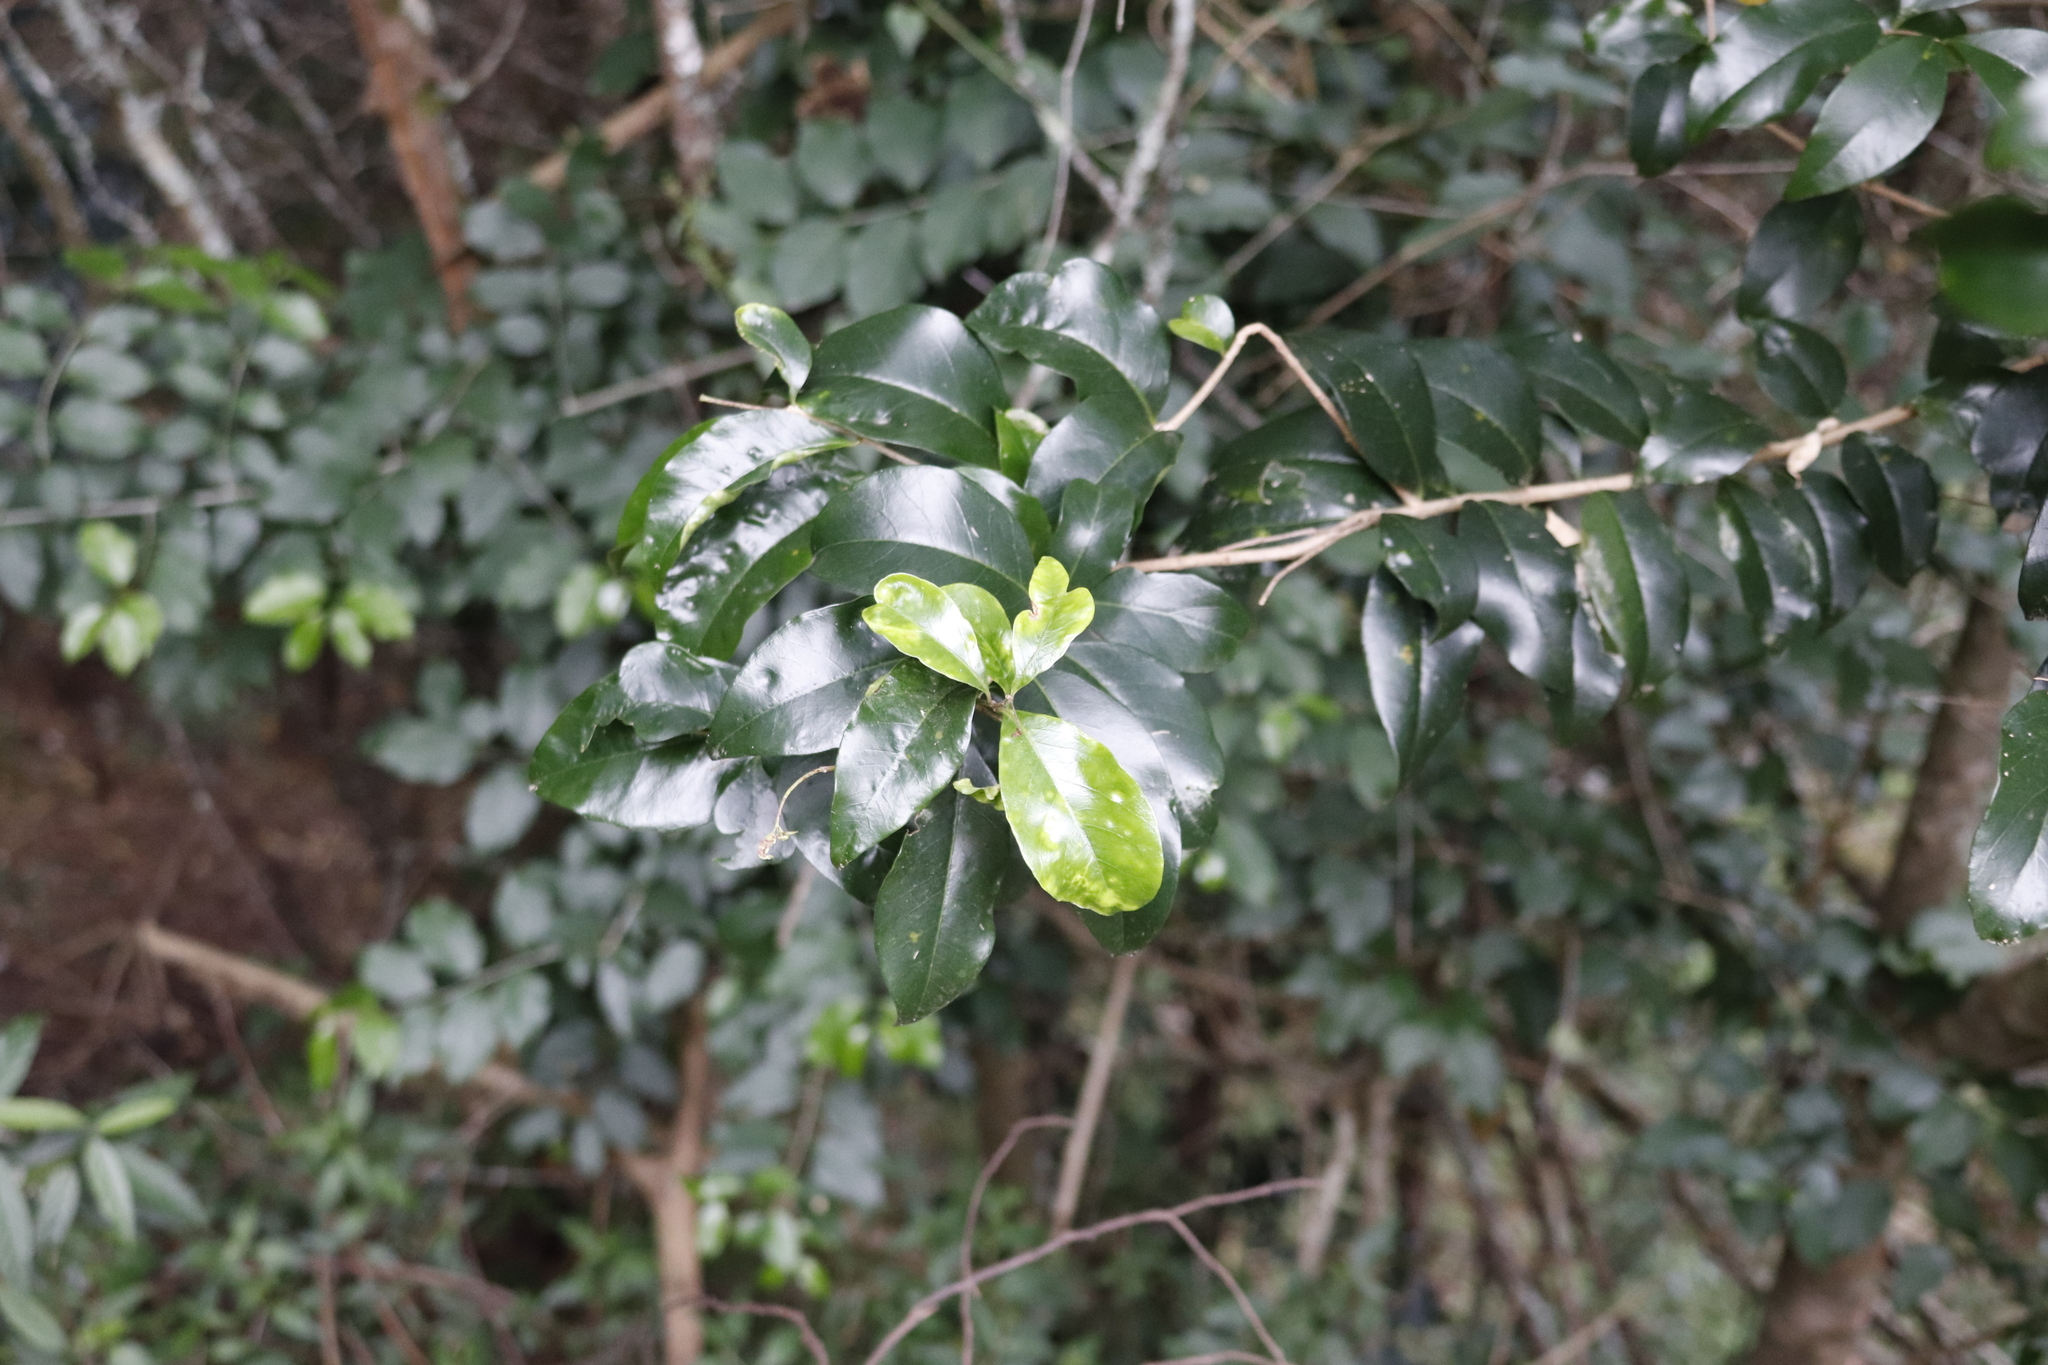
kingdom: Plantae
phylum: Tracheophyta
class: Magnoliopsida
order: Myrtales
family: Penaeaceae
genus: Olinia
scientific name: Olinia ventosa
